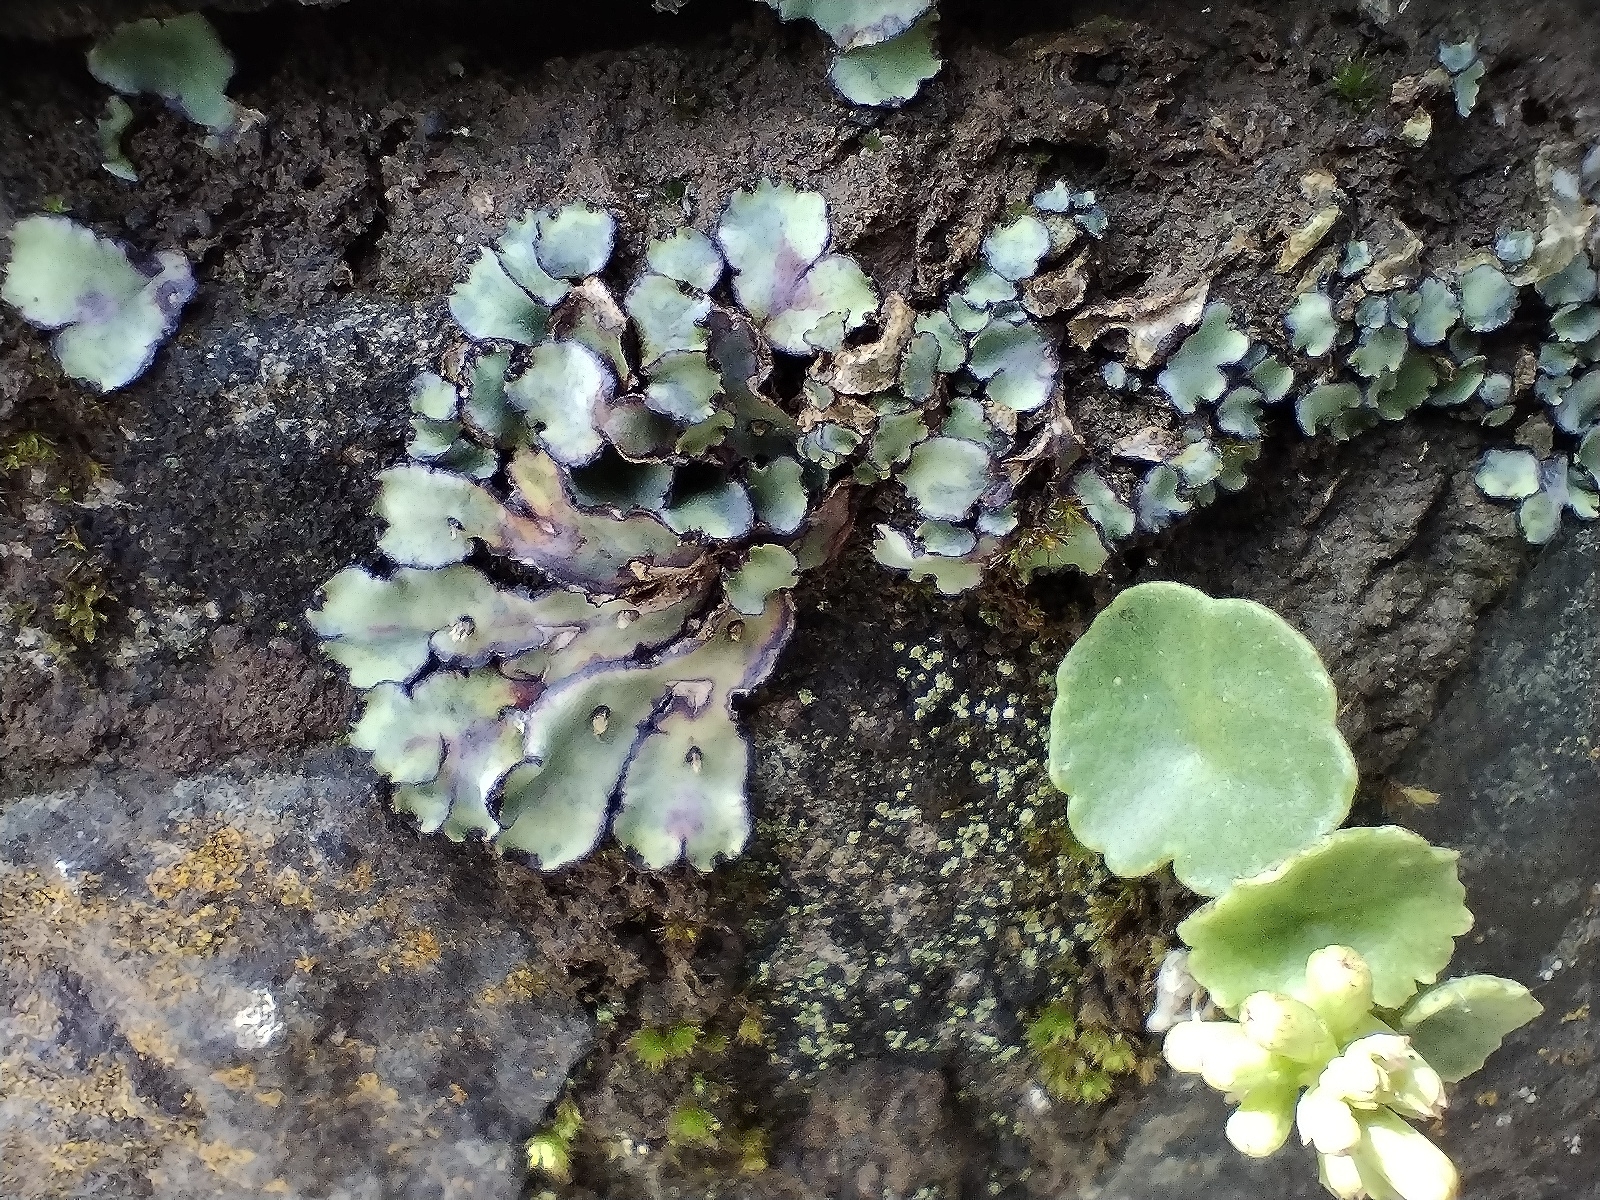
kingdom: Plantae
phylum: Marchantiophyta
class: Marchantiopsida
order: Marchantiales
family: Aytoniaceae
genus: Plagiochasma
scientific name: Plagiochasma rupestre
